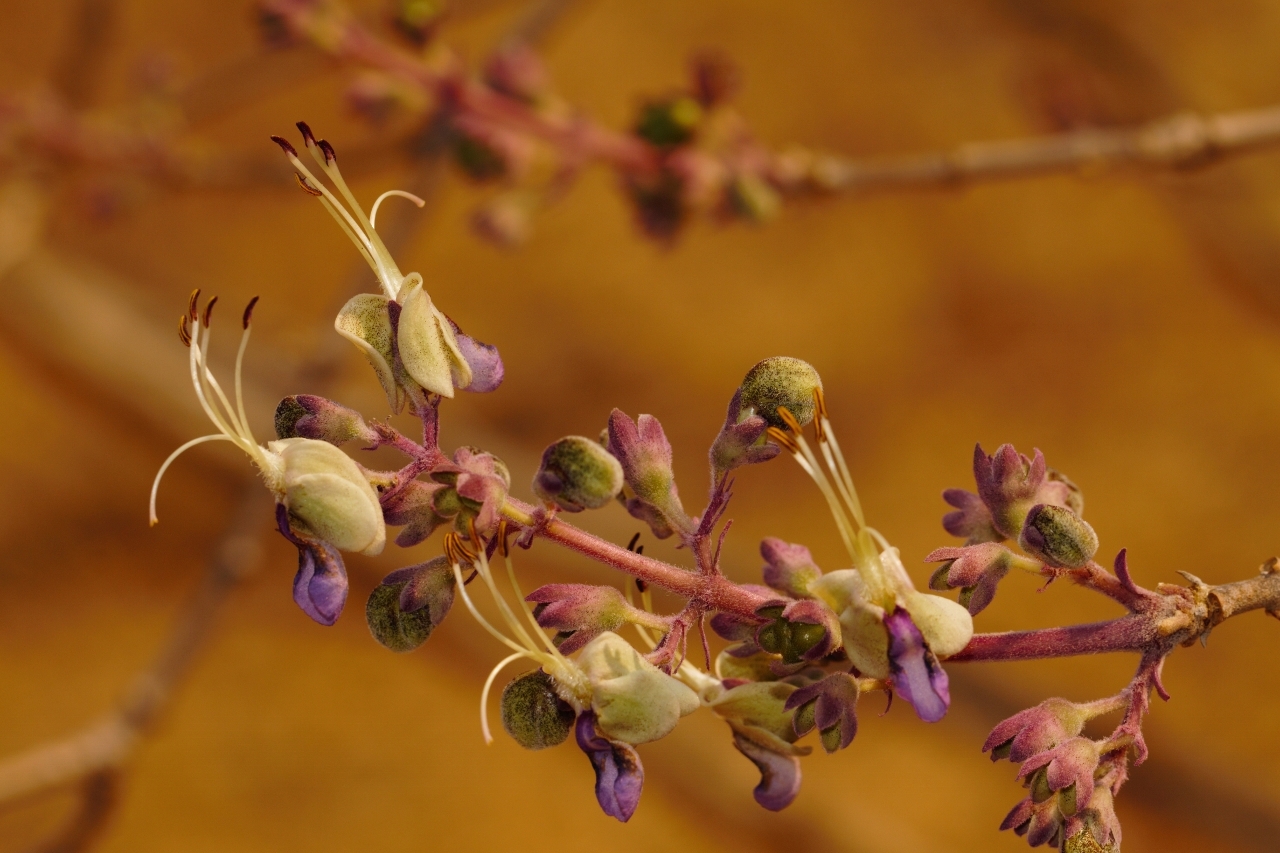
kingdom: Plantae
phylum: Tracheophyta
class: Magnoliopsida
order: Lamiales
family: Lamiaceae
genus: Rotheca
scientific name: Rotheca wildii
